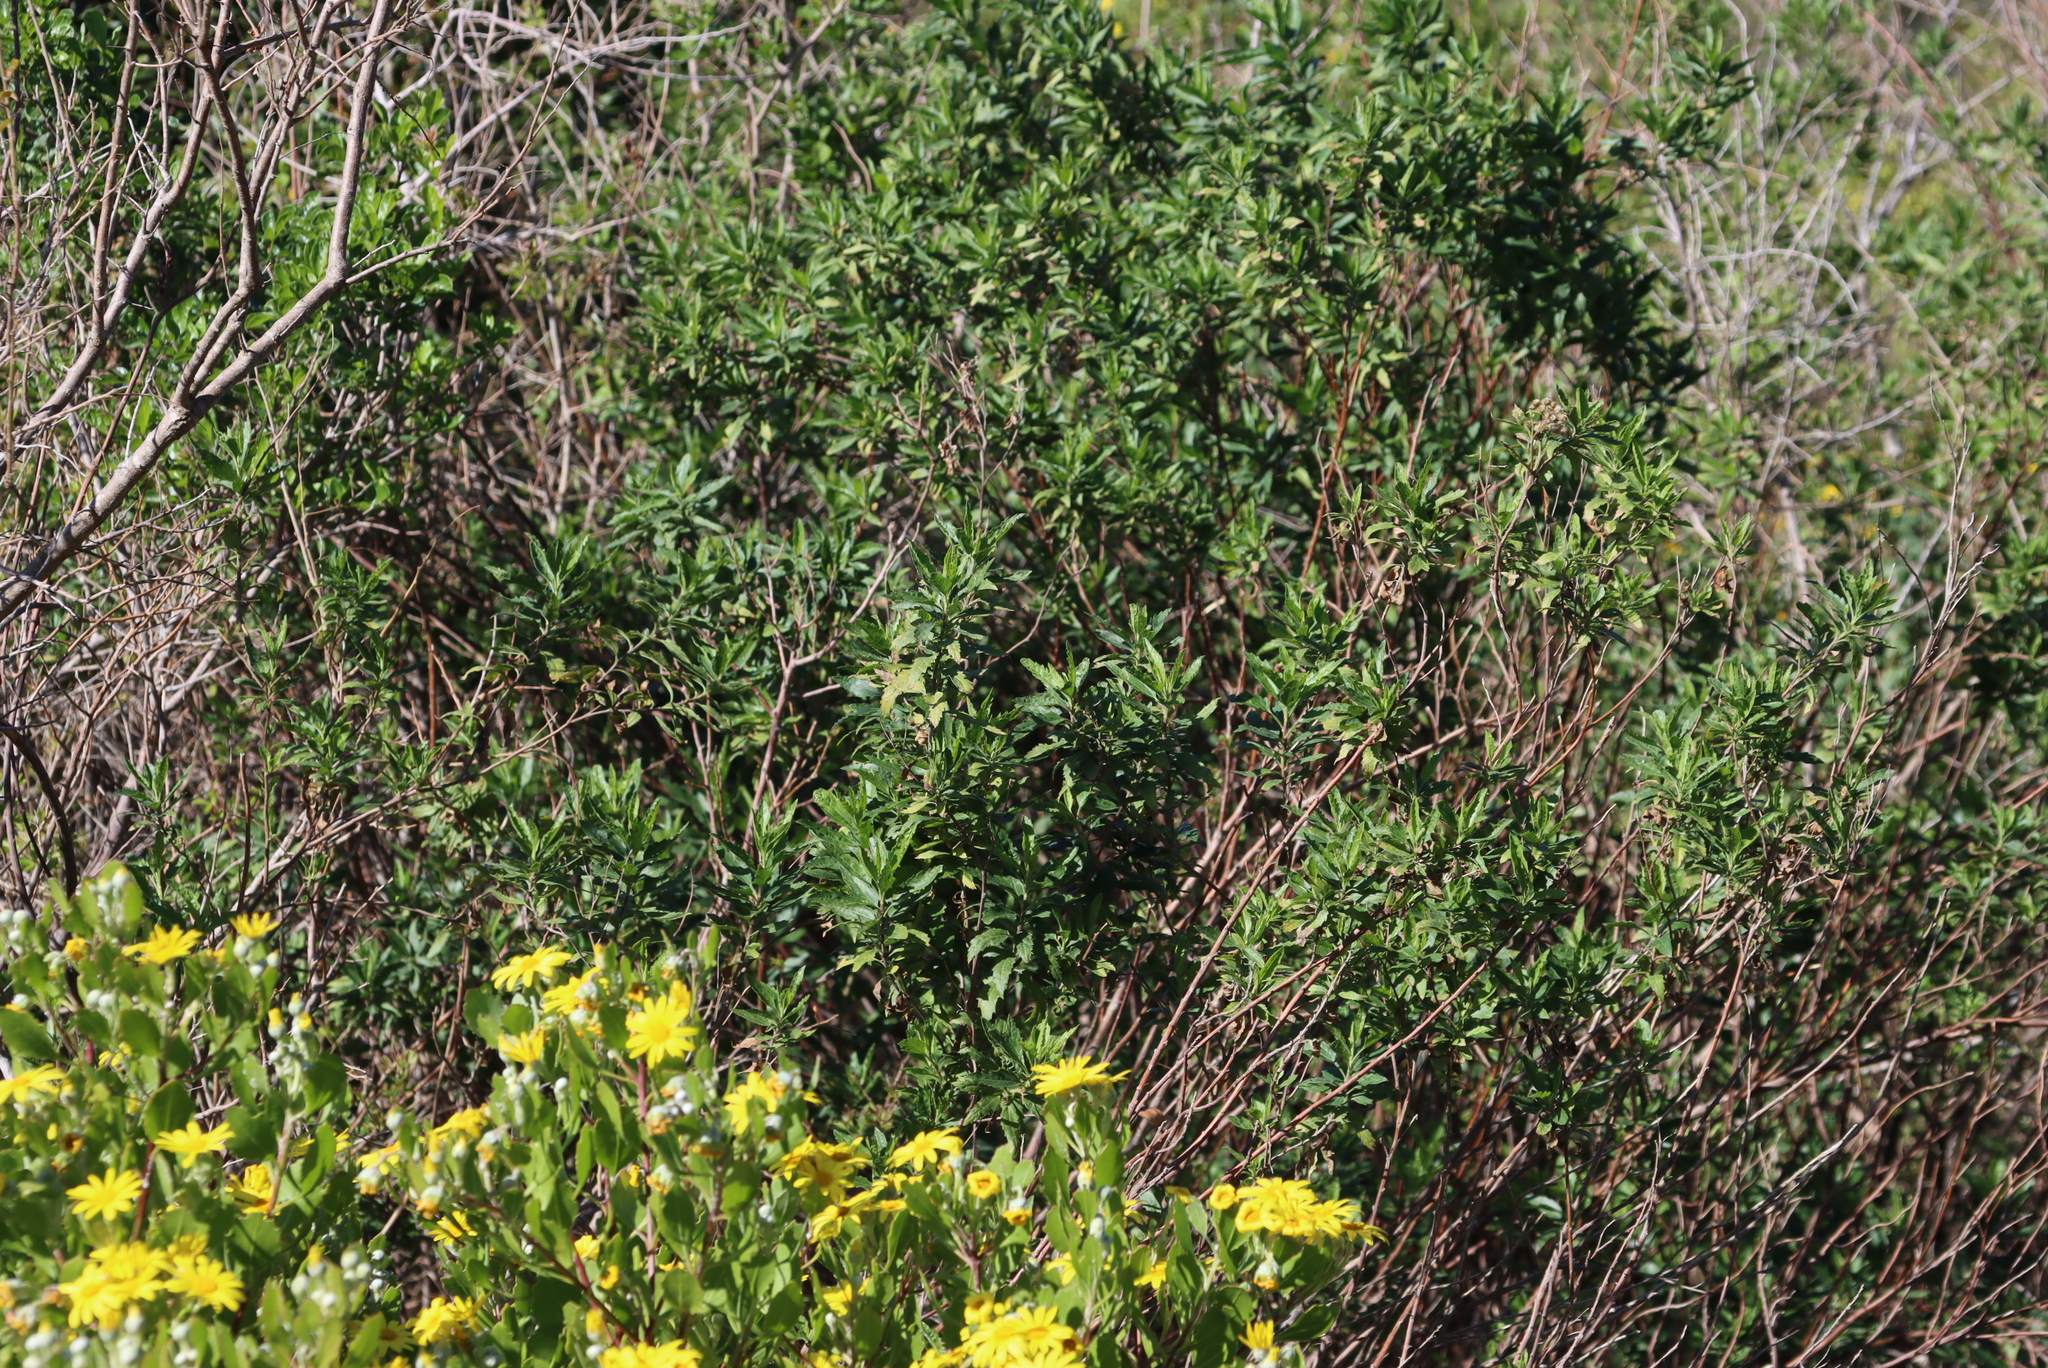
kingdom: Plantae
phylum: Tracheophyta
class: Magnoliopsida
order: Asterales
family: Asteraceae
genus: Nidorella
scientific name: Nidorella ivifolia
